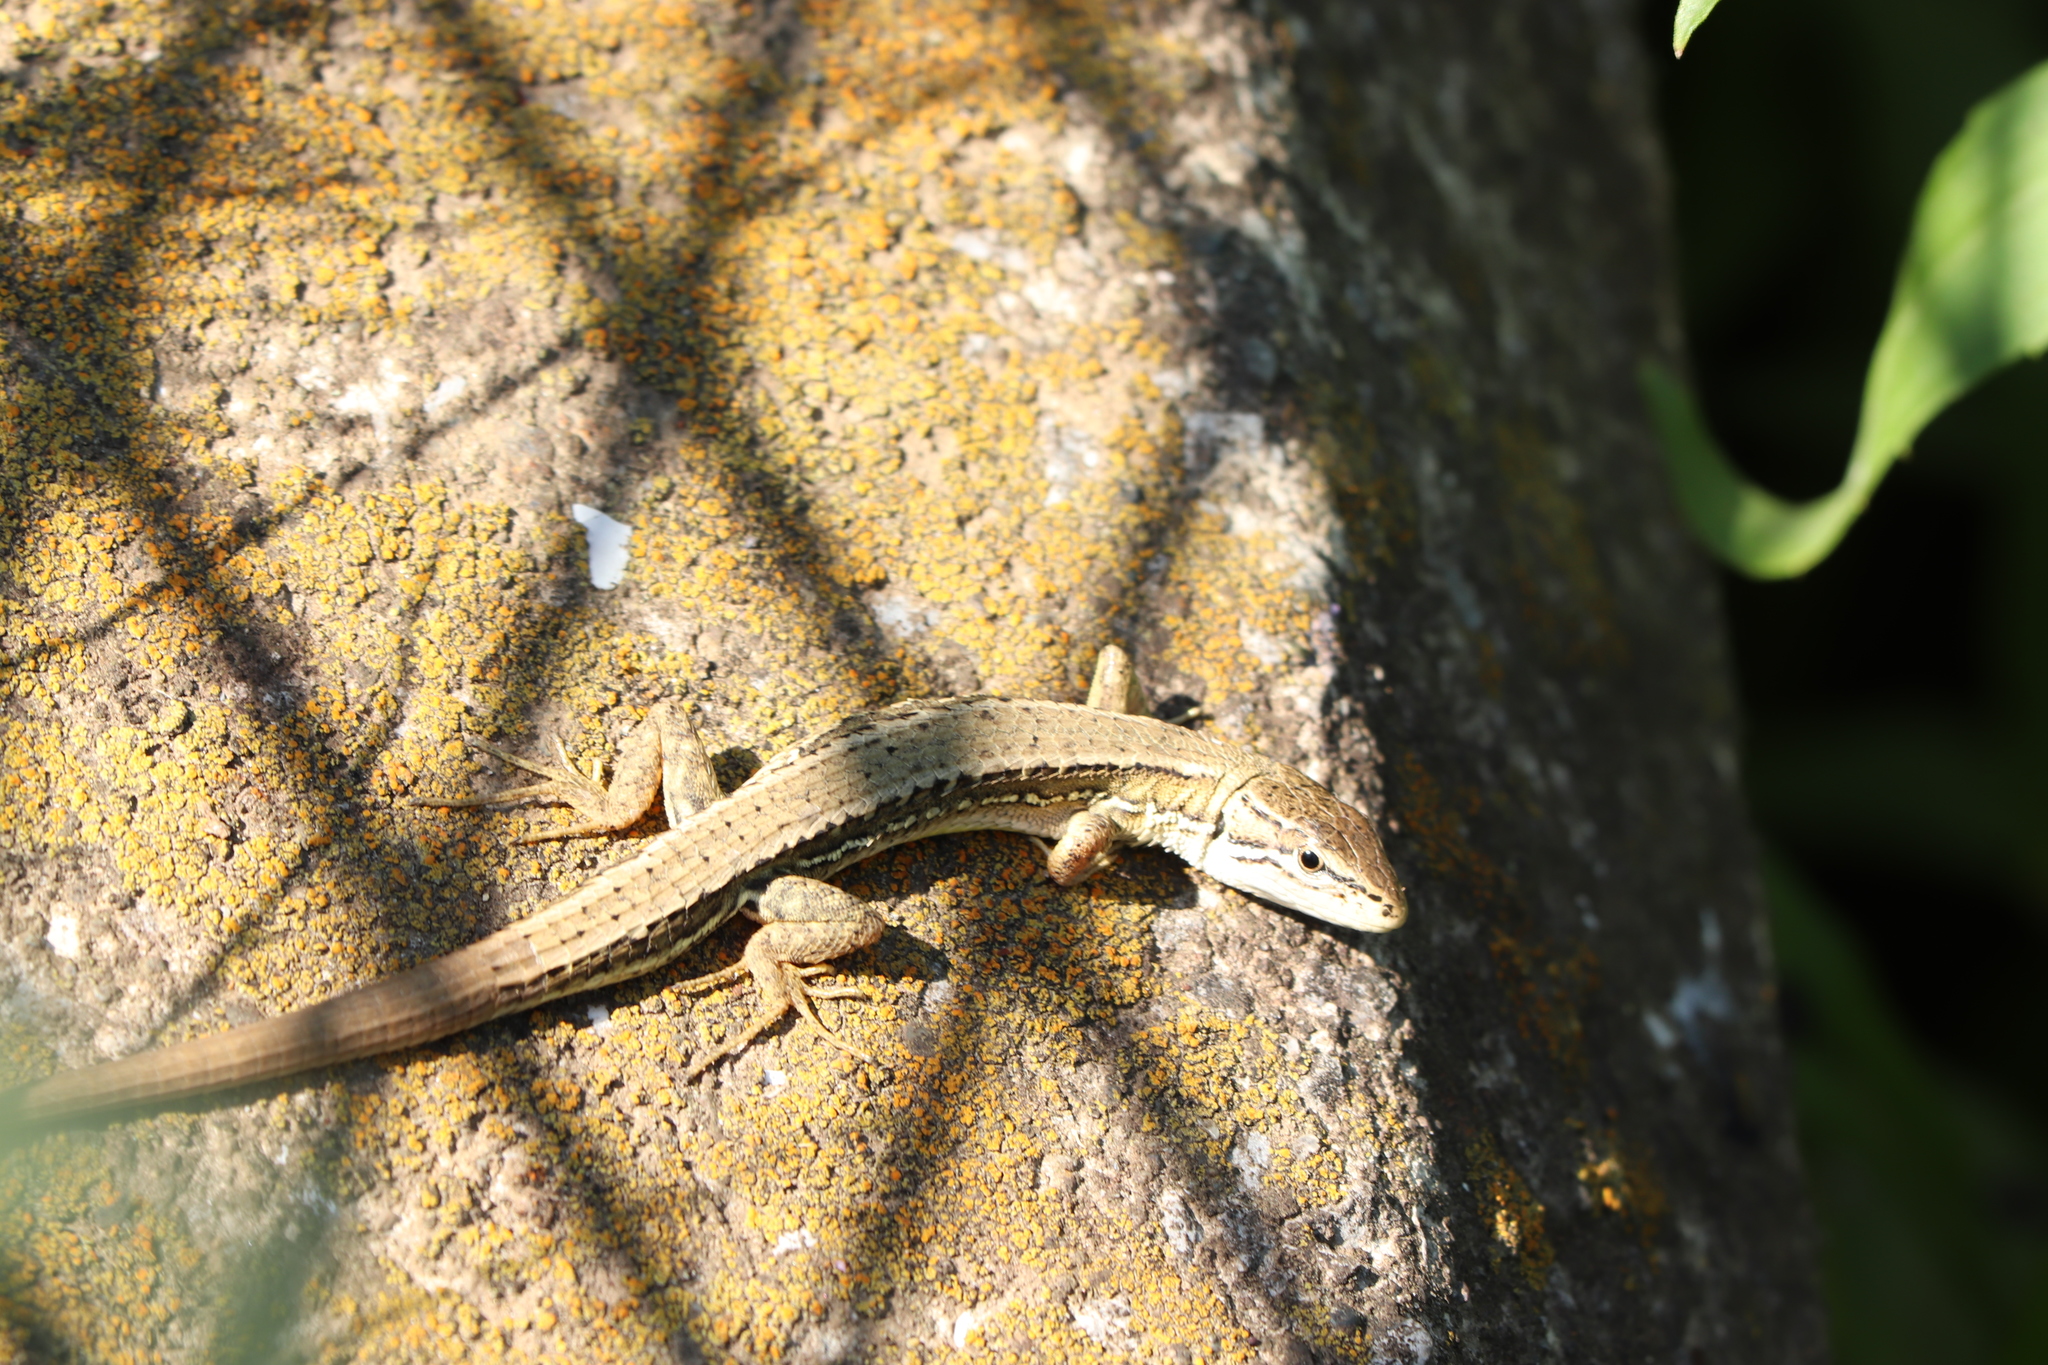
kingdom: Animalia
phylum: Chordata
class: Squamata
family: Lacertidae
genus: Takydromus
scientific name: Takydromus tachydromoides
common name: Japanese grass lizard
